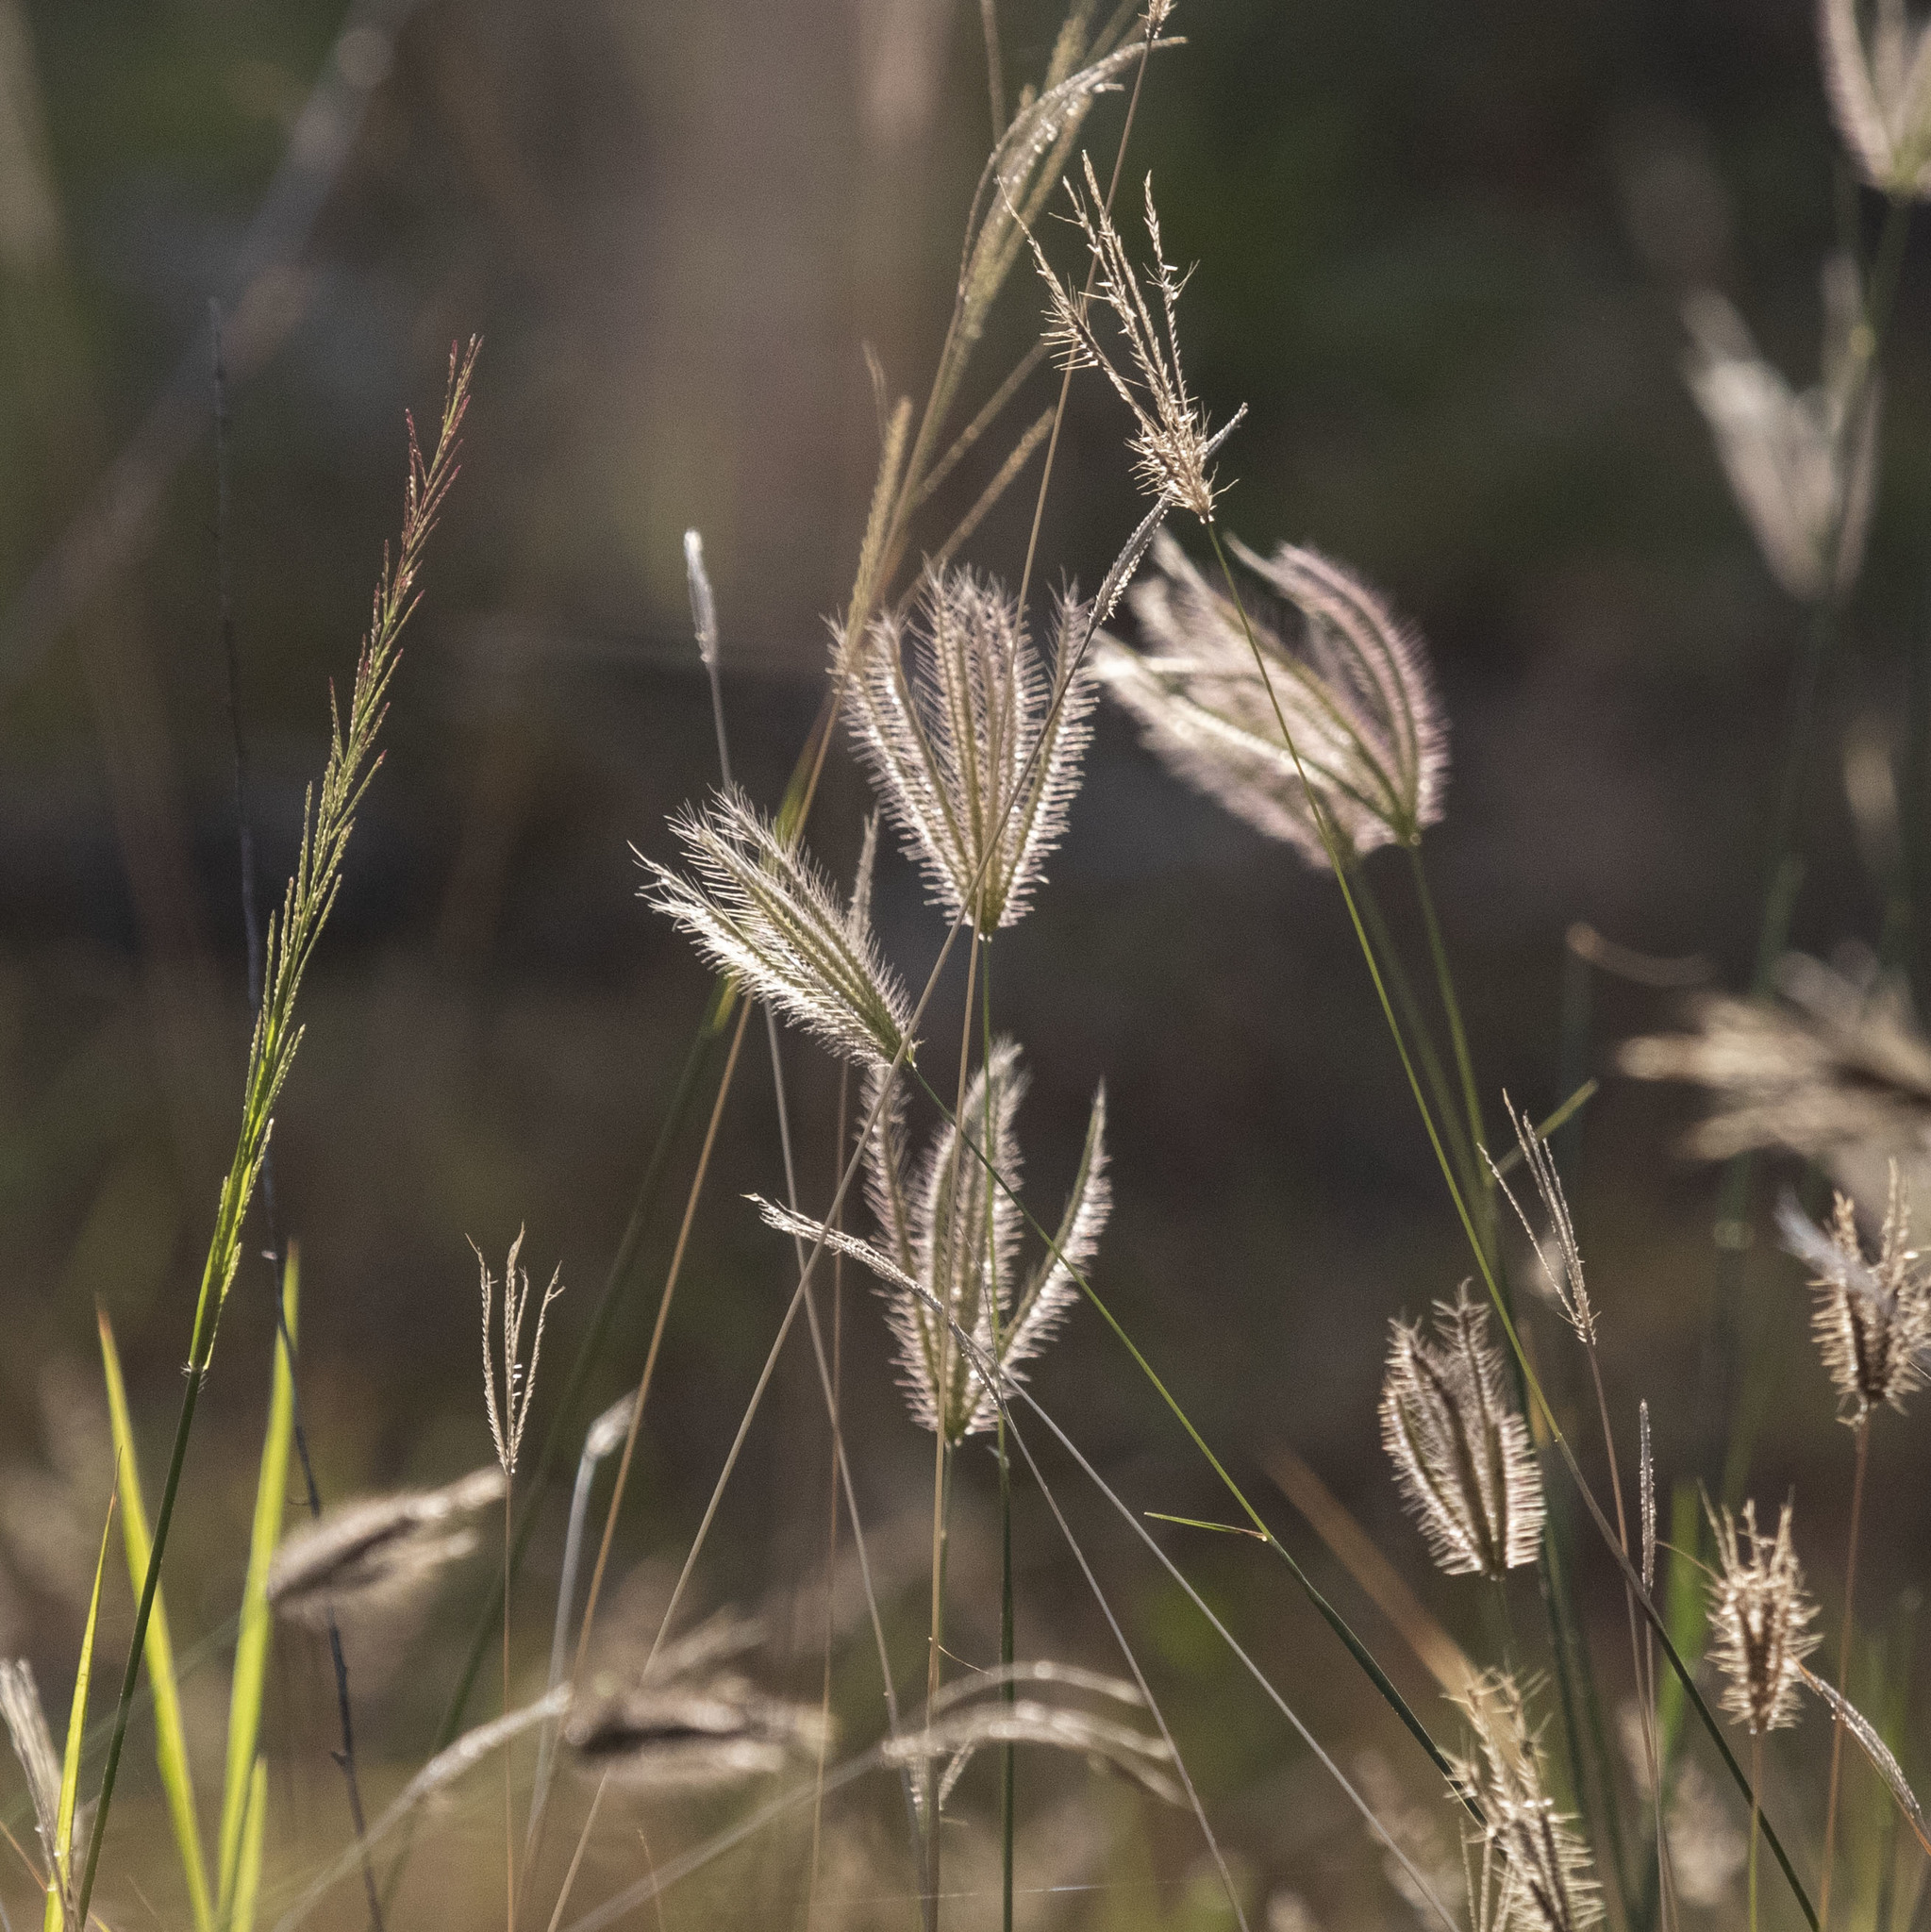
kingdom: Plantae
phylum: Tracheophyta
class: Liliopsida
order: Poales
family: Poaceae
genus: Chloris
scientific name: Chloris virgata
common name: Feathery rhodes-grass
